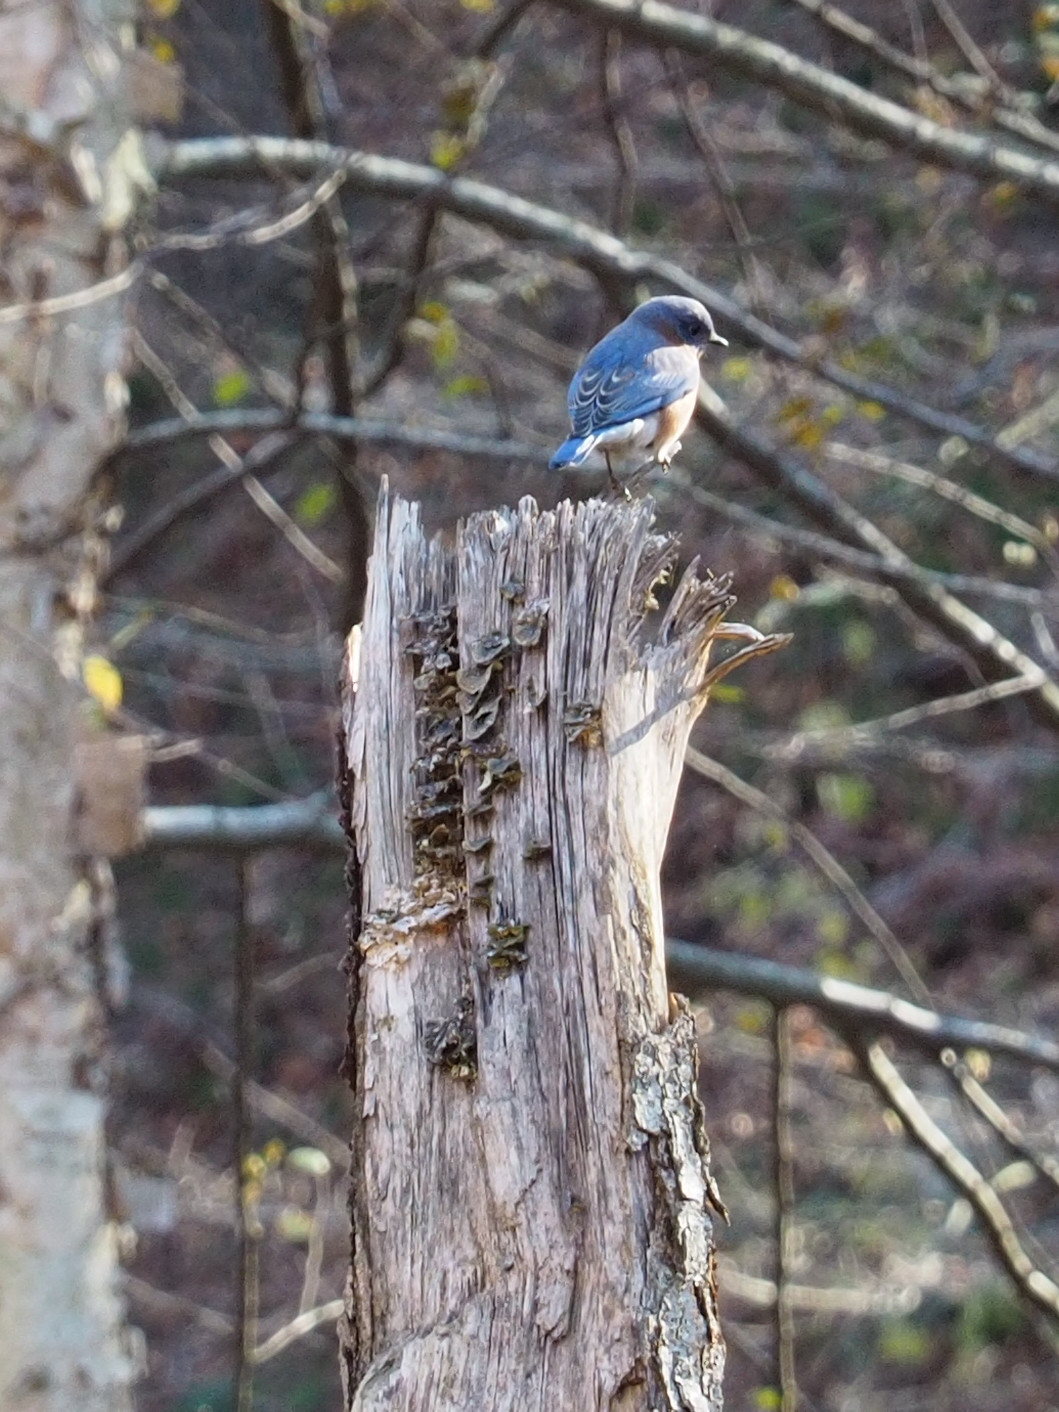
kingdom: Animalia
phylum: Chordata
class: Aves
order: Passeriformes
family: Turdidae
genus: Sialia
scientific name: Sialia sialis
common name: Eastern bluebird
